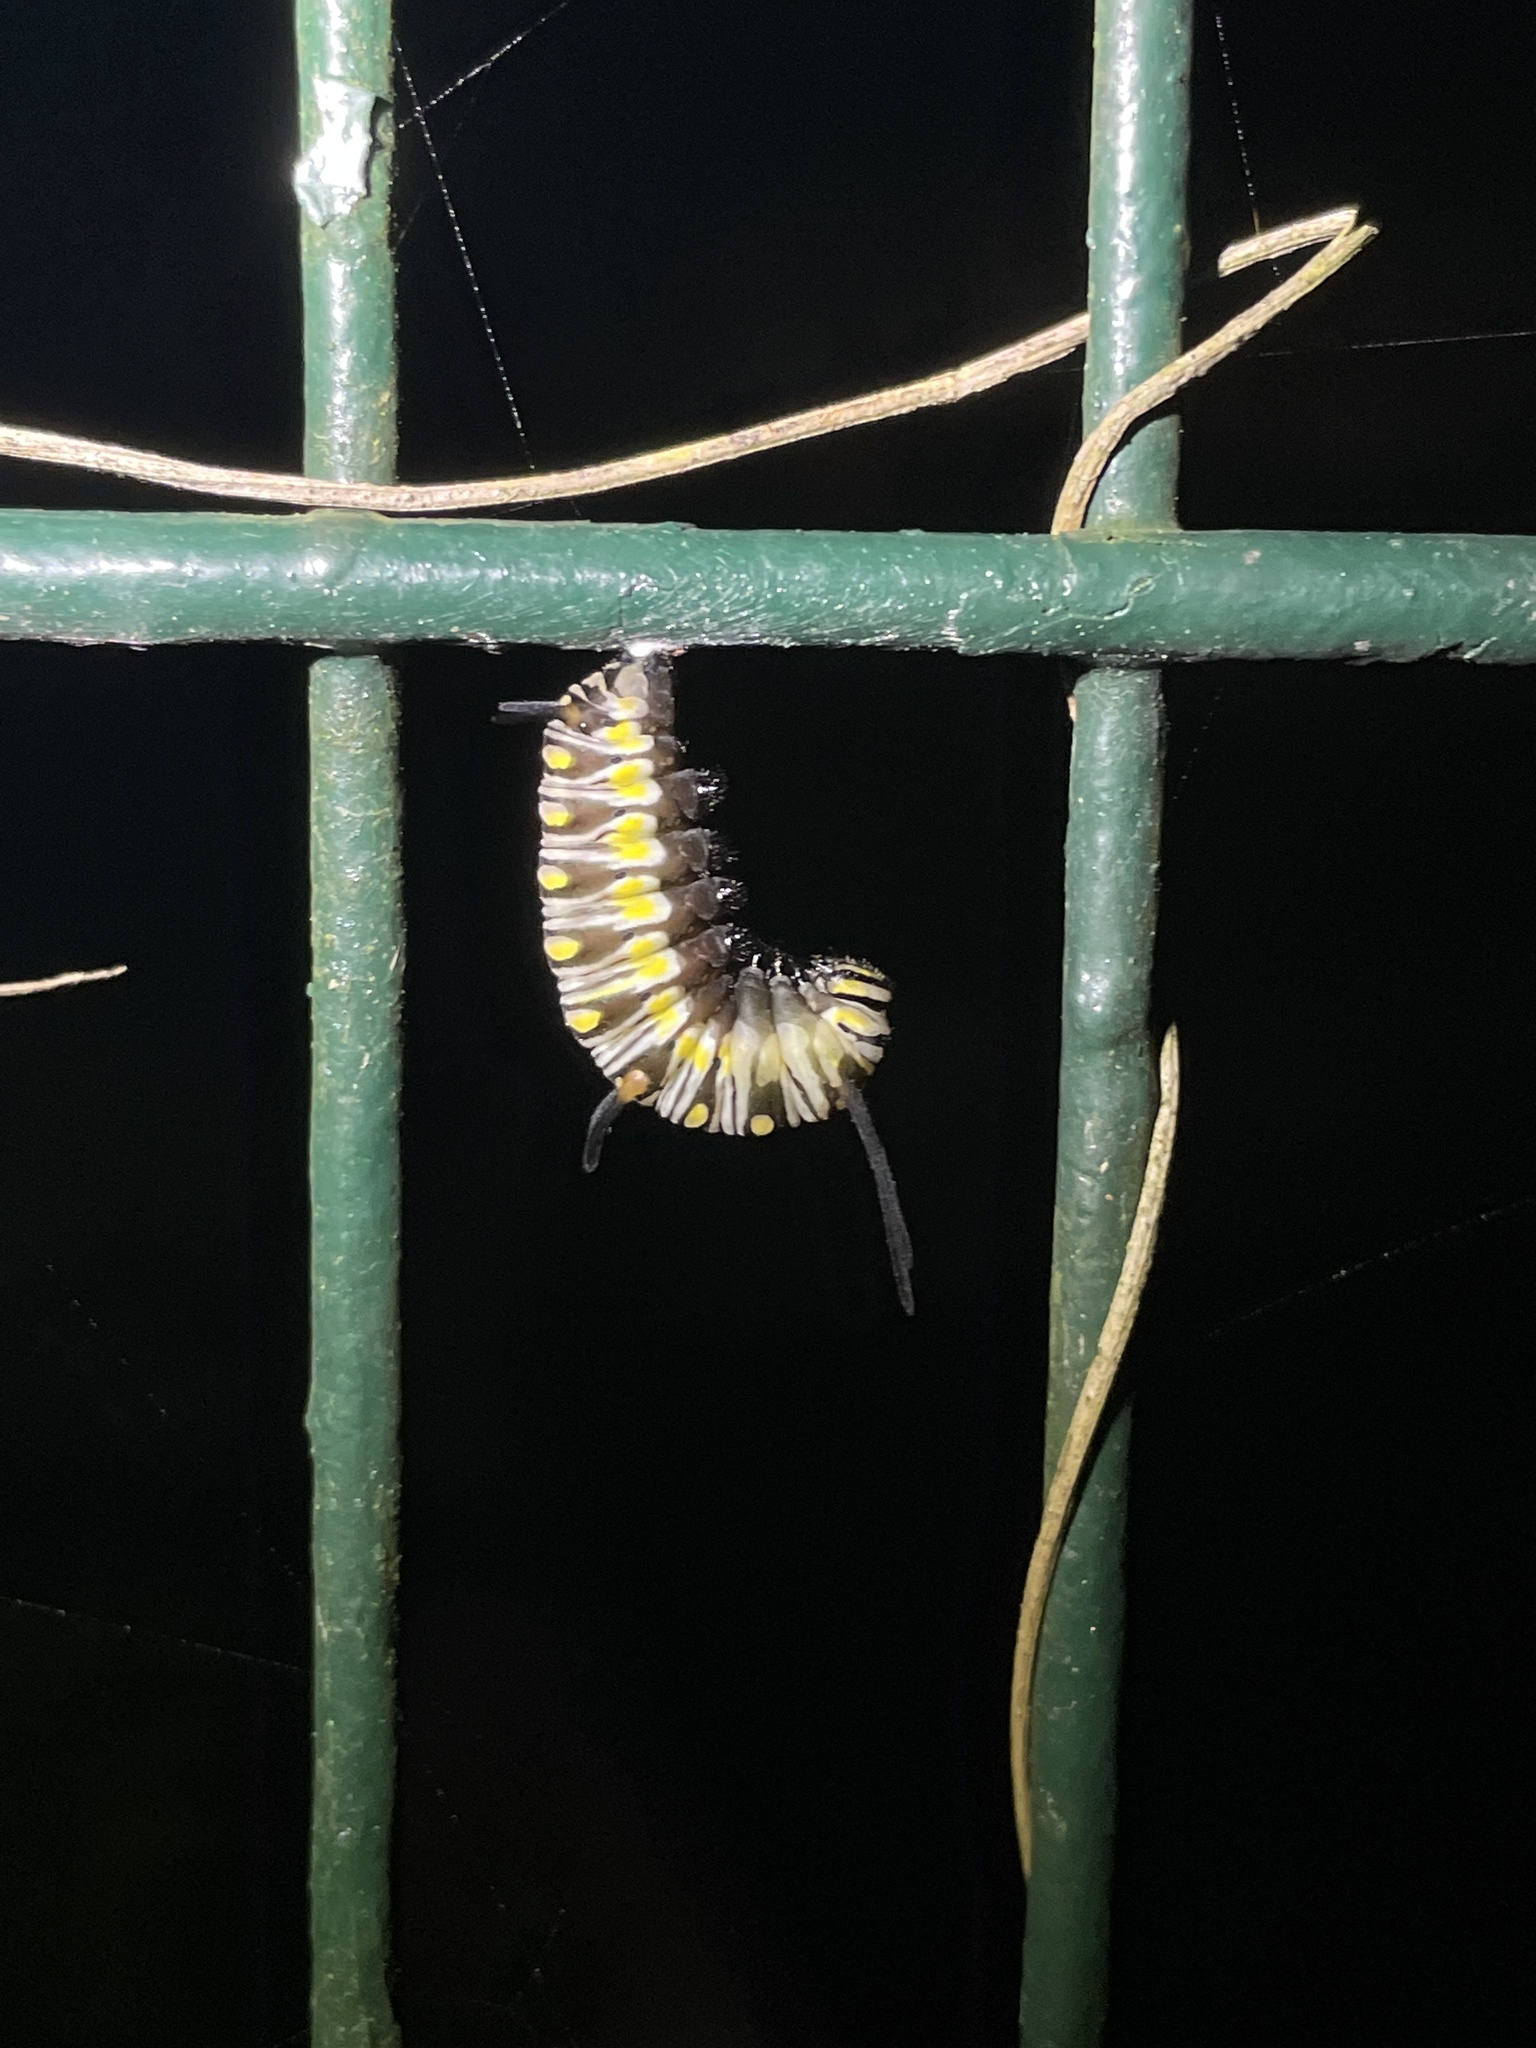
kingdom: Animalia
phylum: Arthropoda
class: Insecta
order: Lepidoptera
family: Nymphalidae
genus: Danaus
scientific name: Danaus chrysippus
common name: Plain tiger
